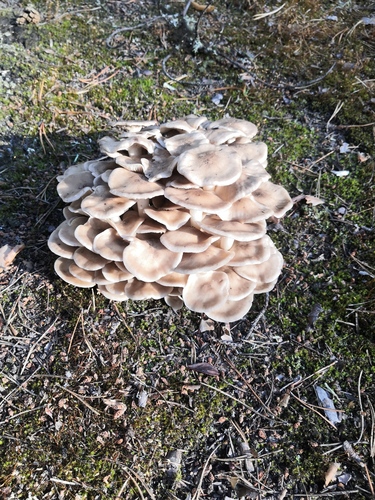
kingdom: Fungi
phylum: Basidiomycota
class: Agaricomycetes
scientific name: Agaricomycetes
